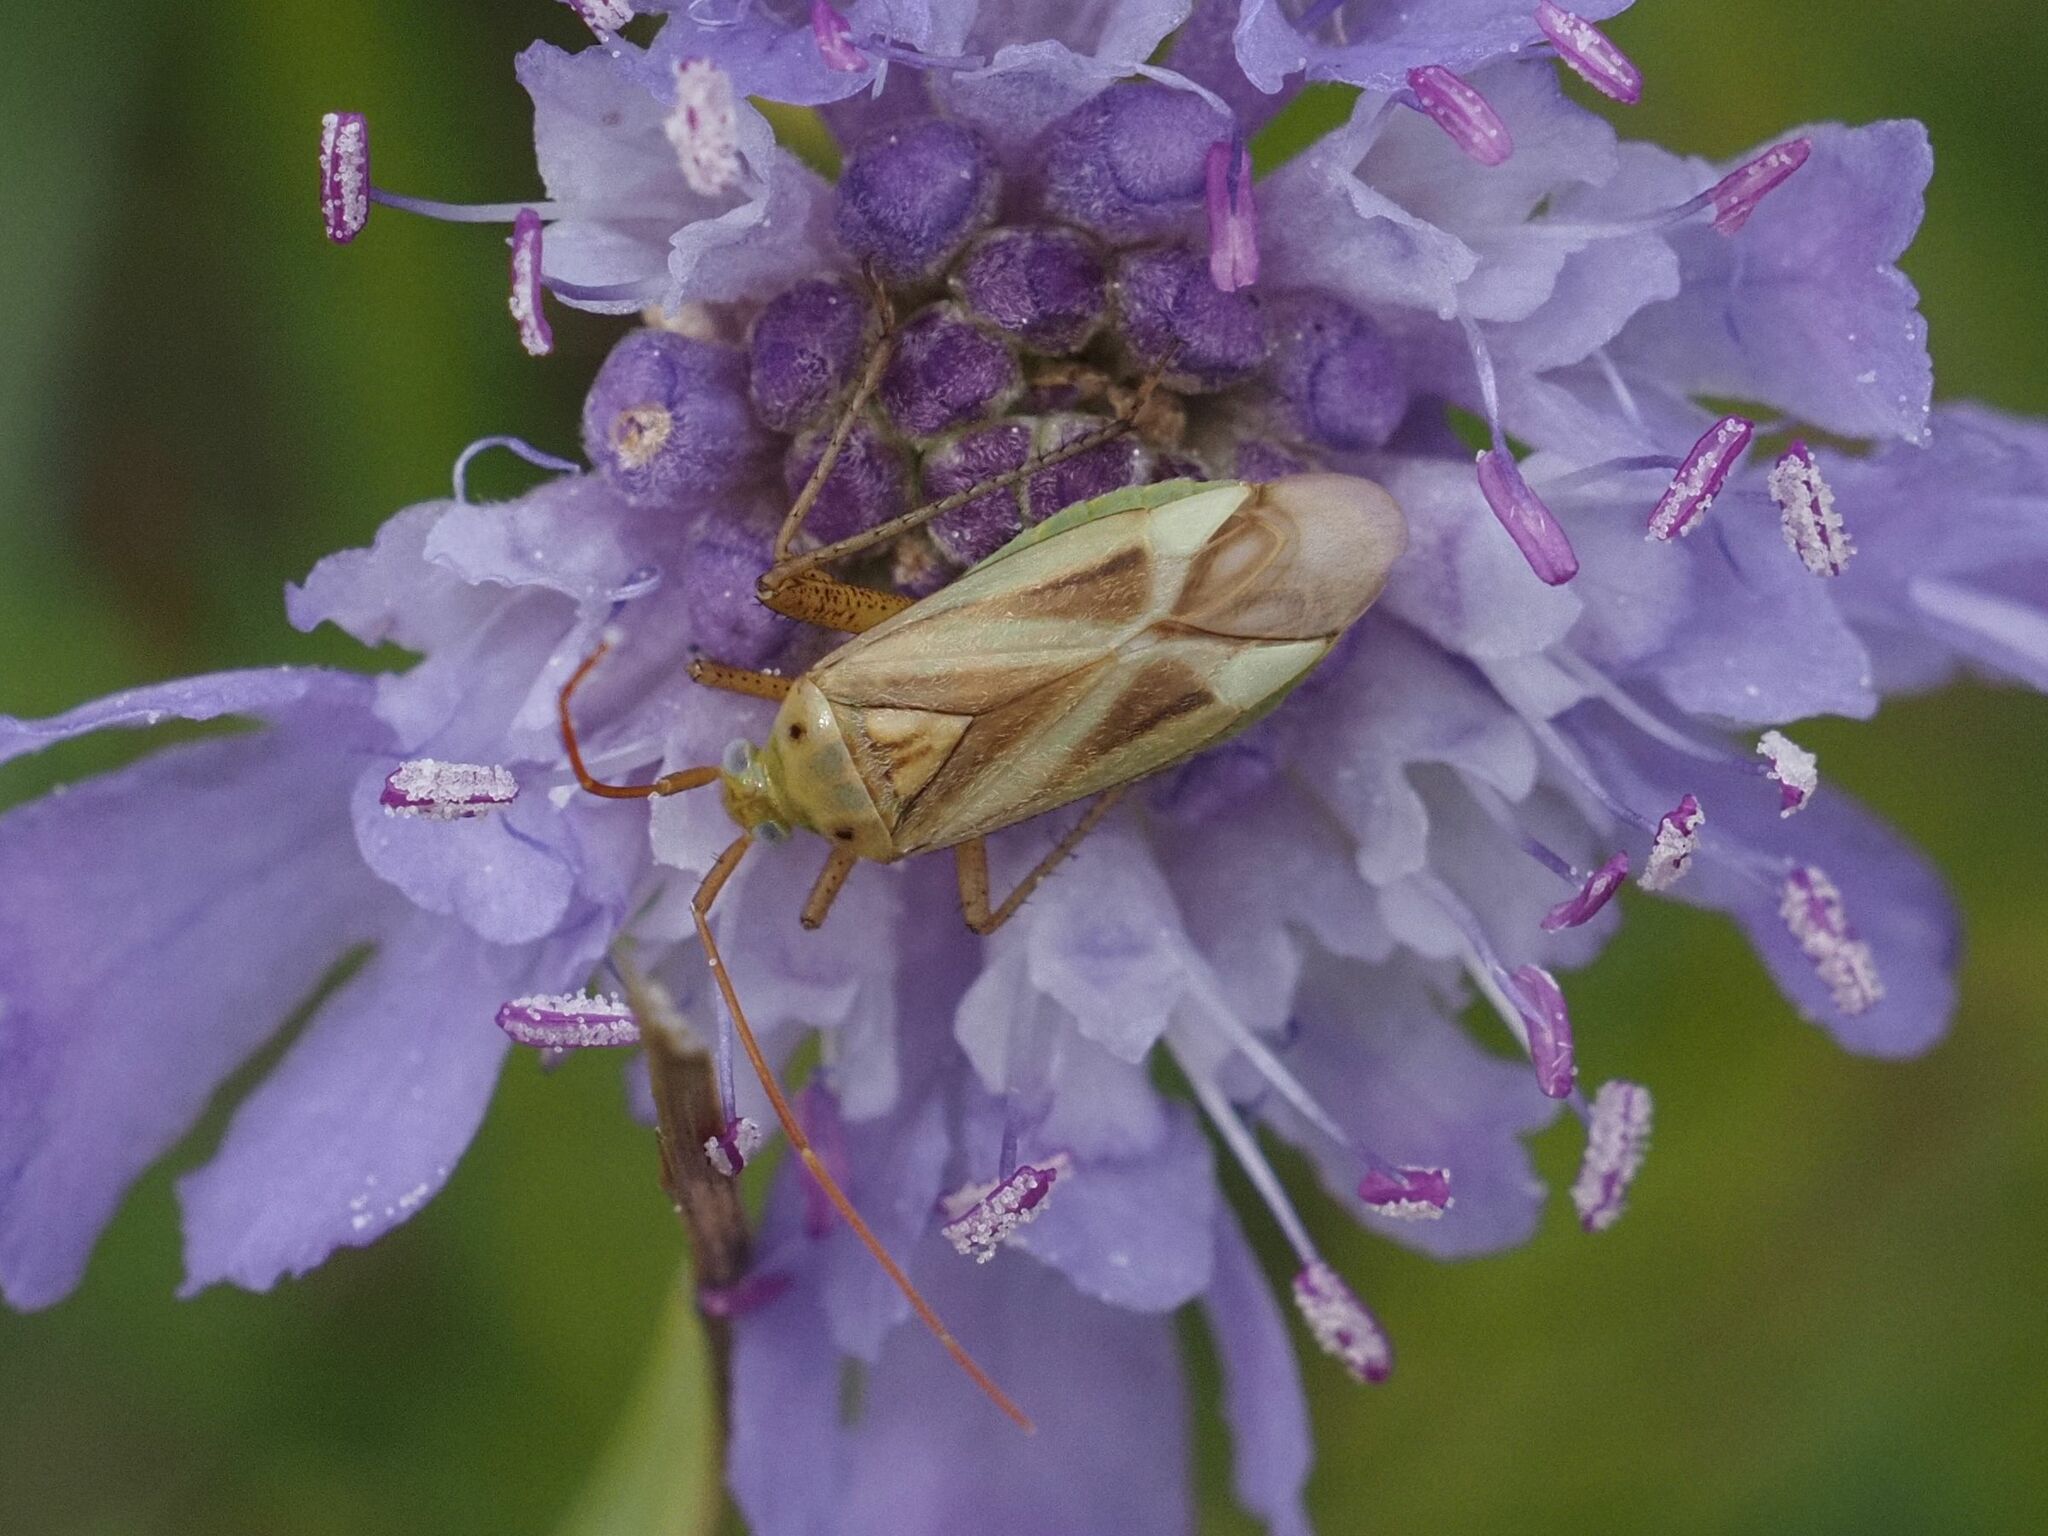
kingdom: Animalia
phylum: Arthropoda
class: Insecta
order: Hemiptera
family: Miridae
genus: Adelphocoris
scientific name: Adelphocoris lineolatus
